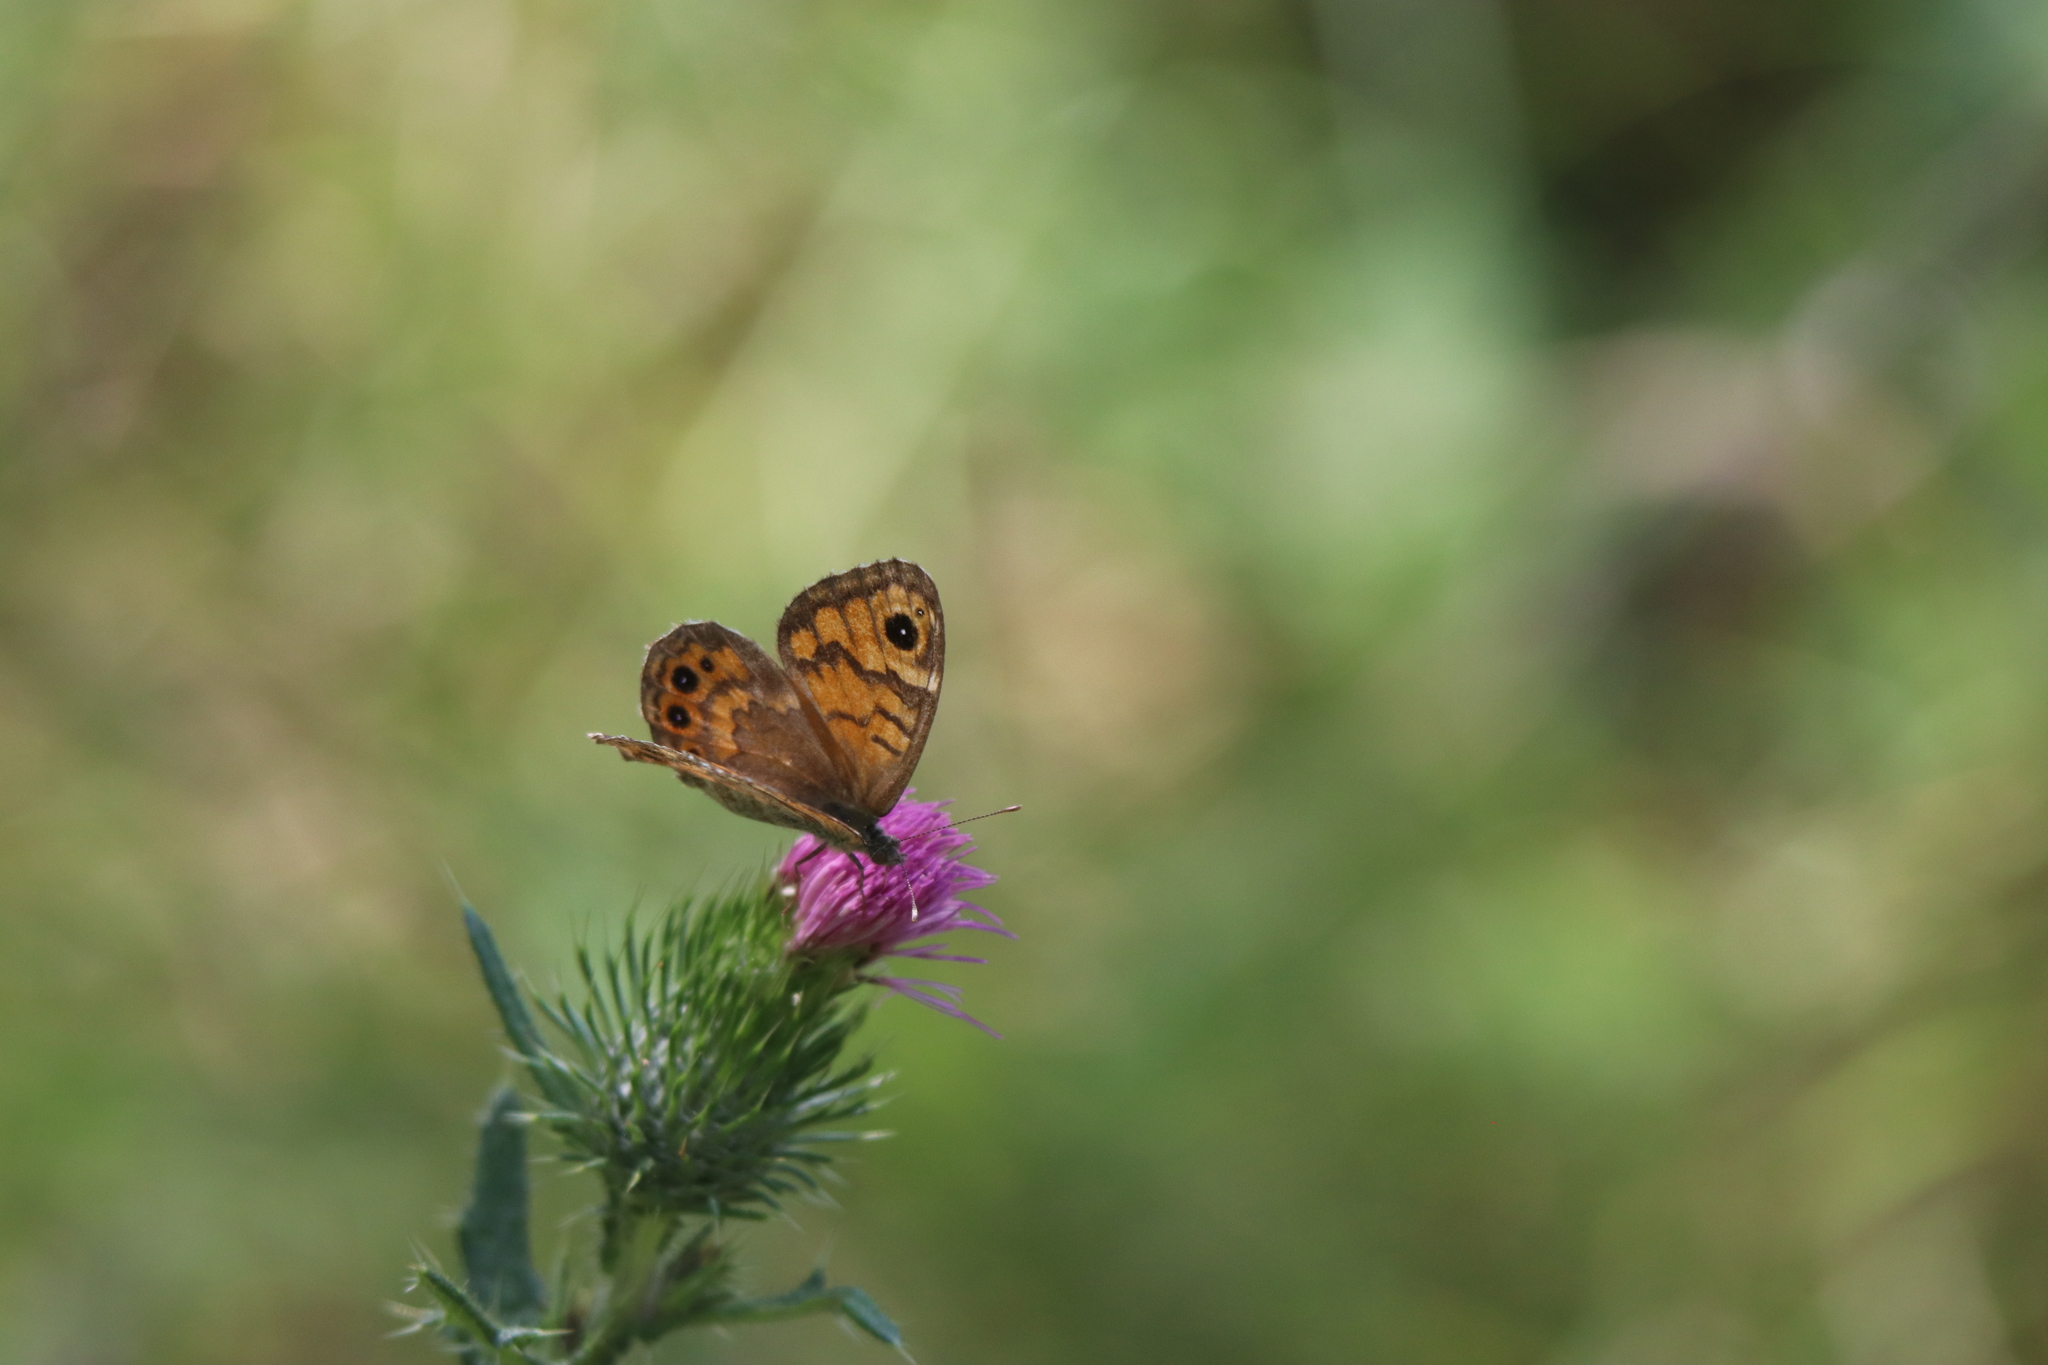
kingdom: Animalia
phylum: Arthropoda
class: Insecta
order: Lepidoptera
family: Nymphalidae
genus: Pararge
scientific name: Pararge Lasiommata megera
